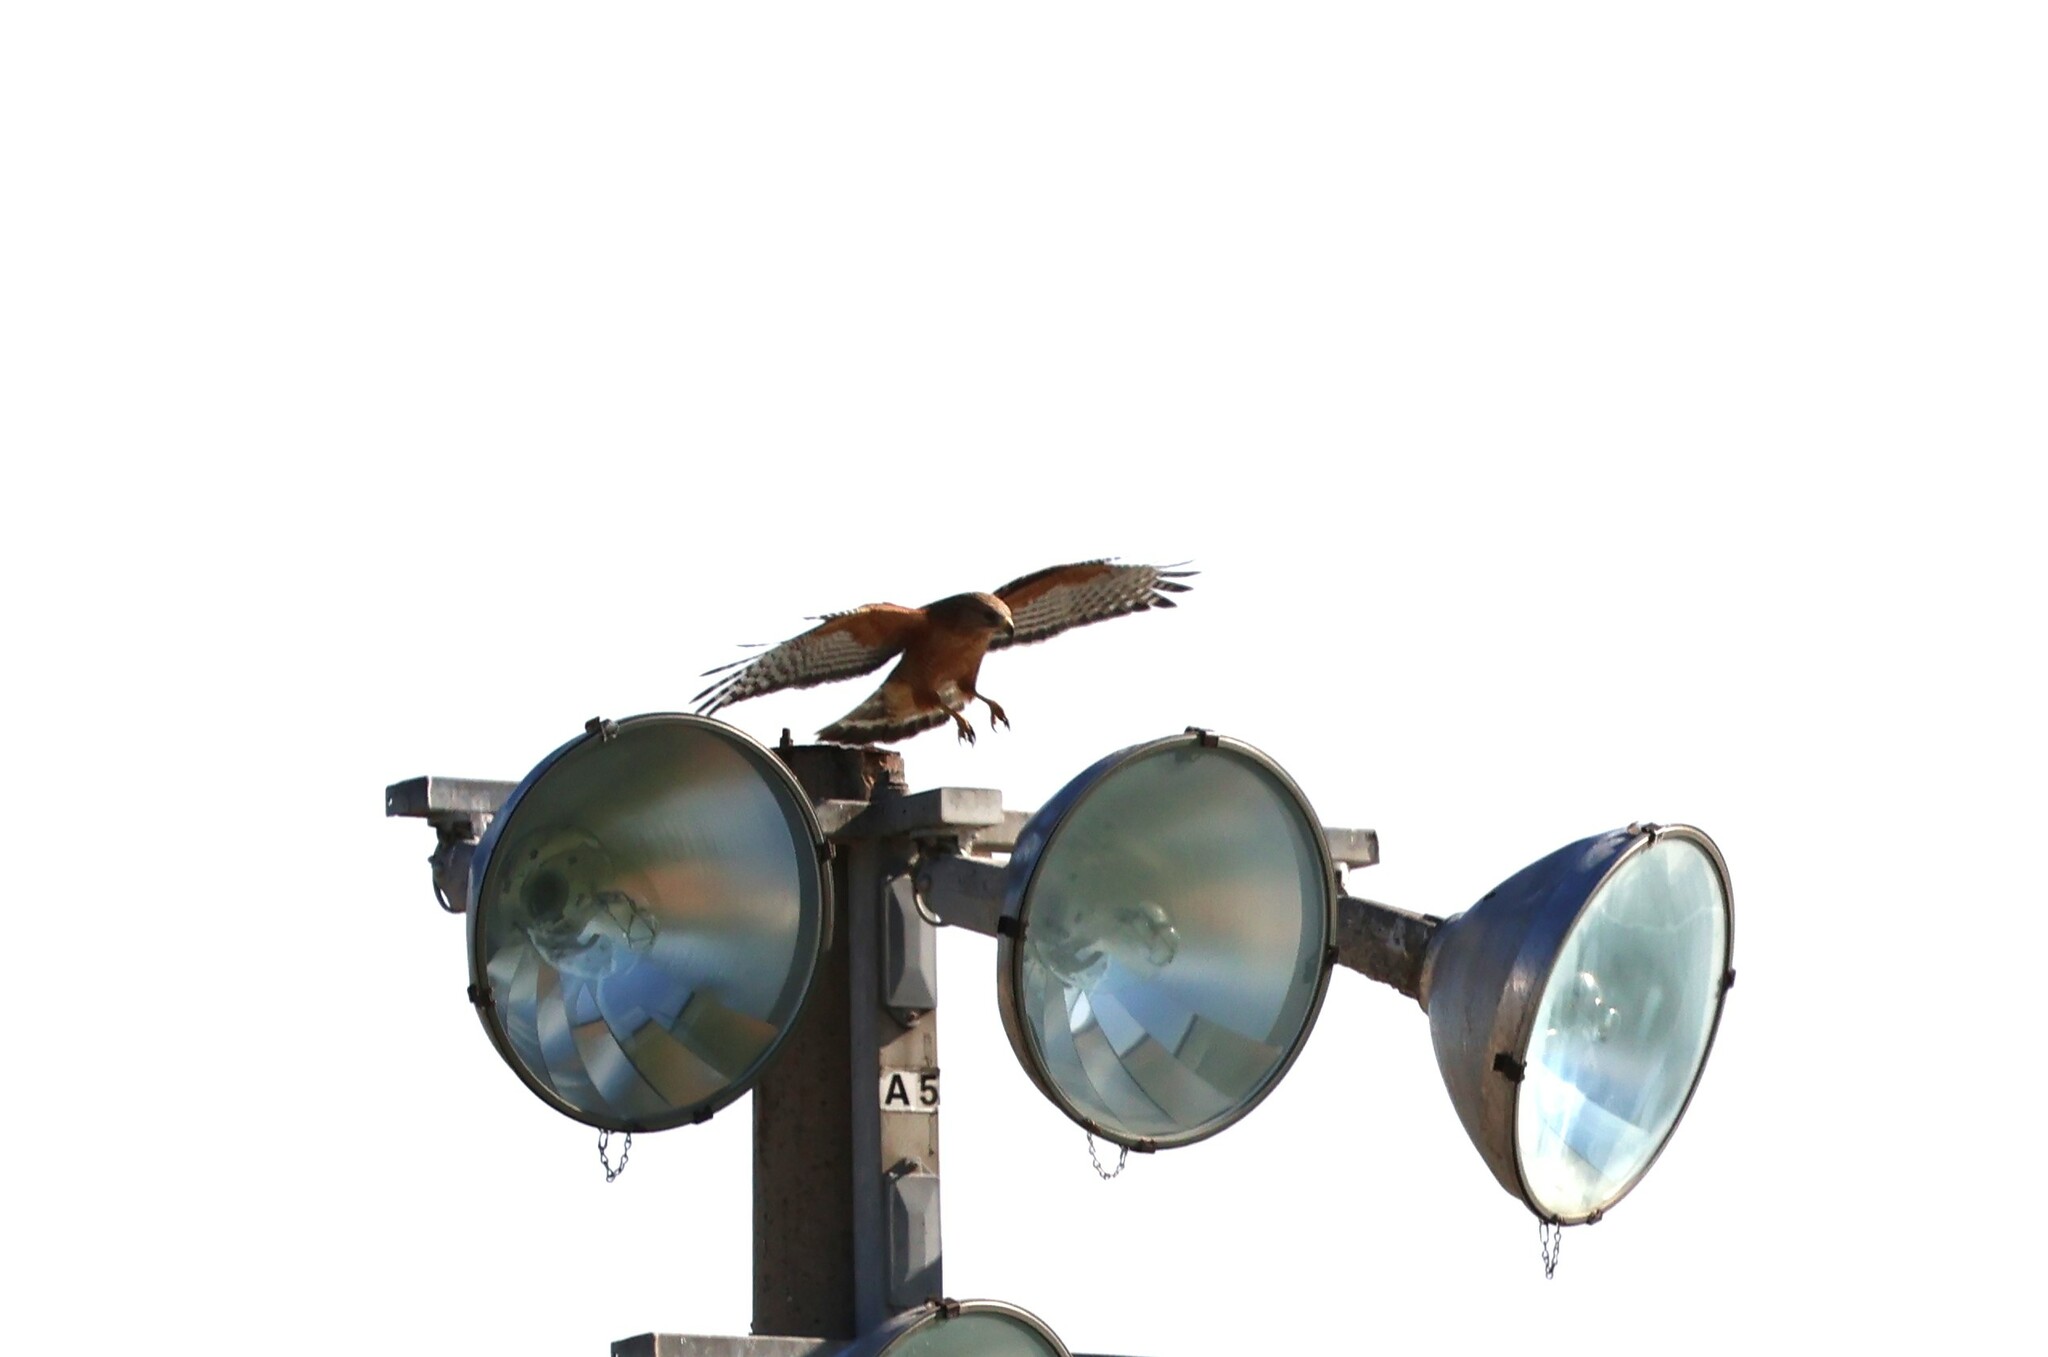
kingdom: Animalia
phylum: Chordata
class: Aves
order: Accipitriformes
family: Accipitridae
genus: Buteo
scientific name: Buteo lineatus
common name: Red-shouldered hawk
